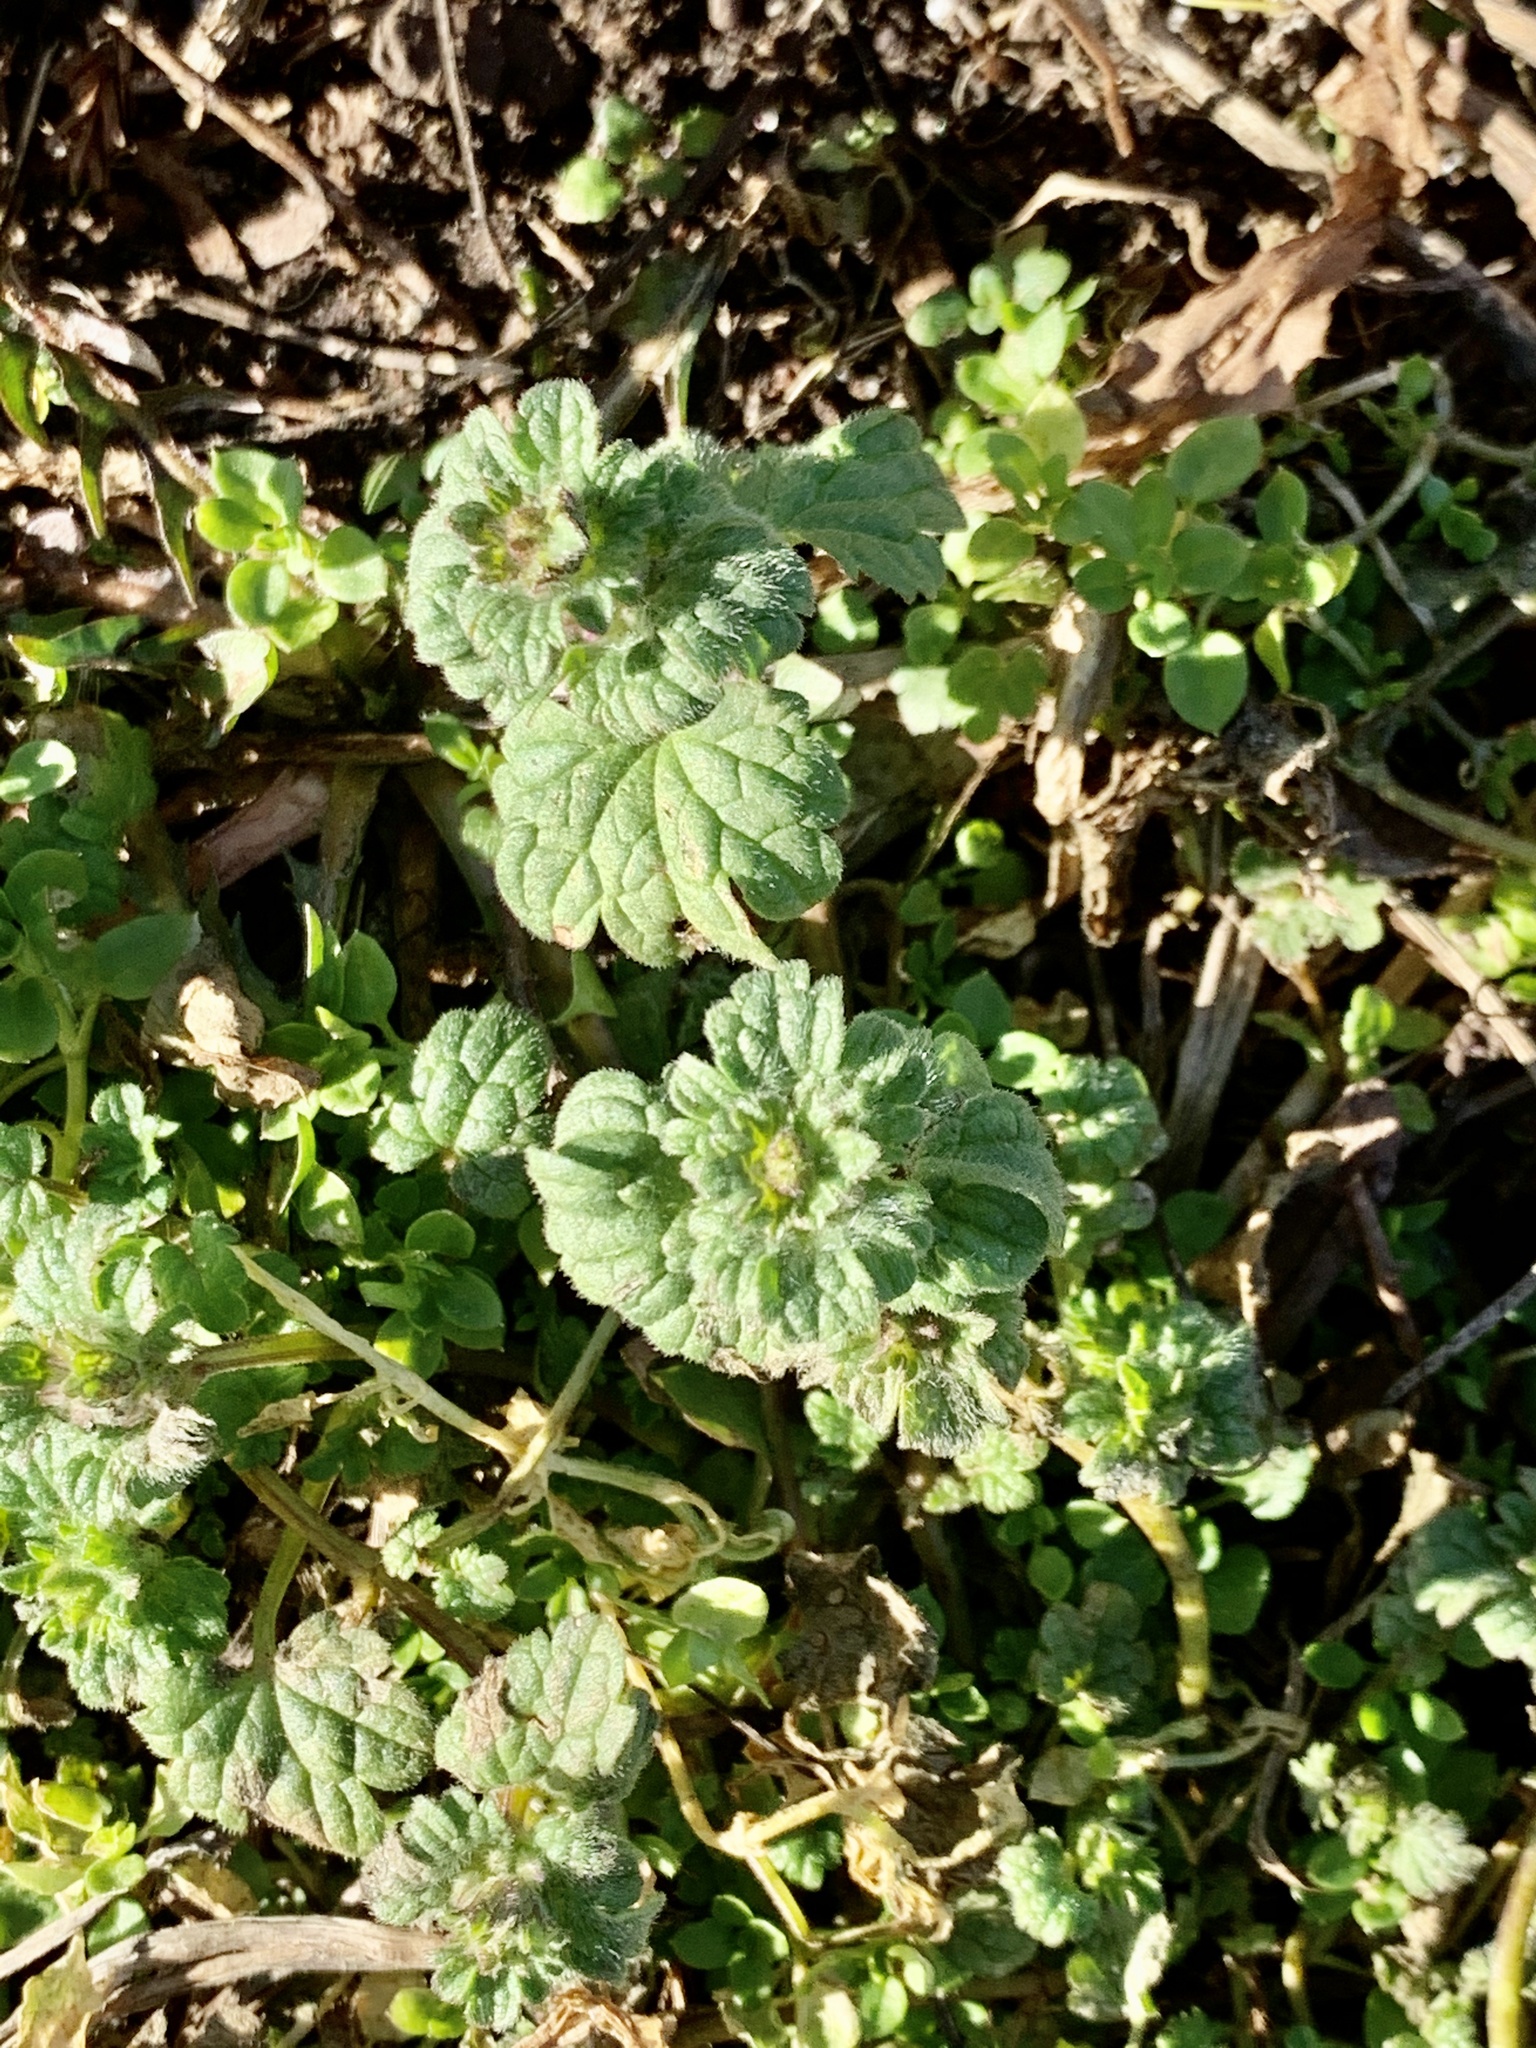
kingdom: Plantae
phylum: Tracheophyta
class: Magnoliopsida
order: Lamiales
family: Lamiaceae
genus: Lamium
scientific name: Lamium amplexicaule
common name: Henbit dead-nettle
